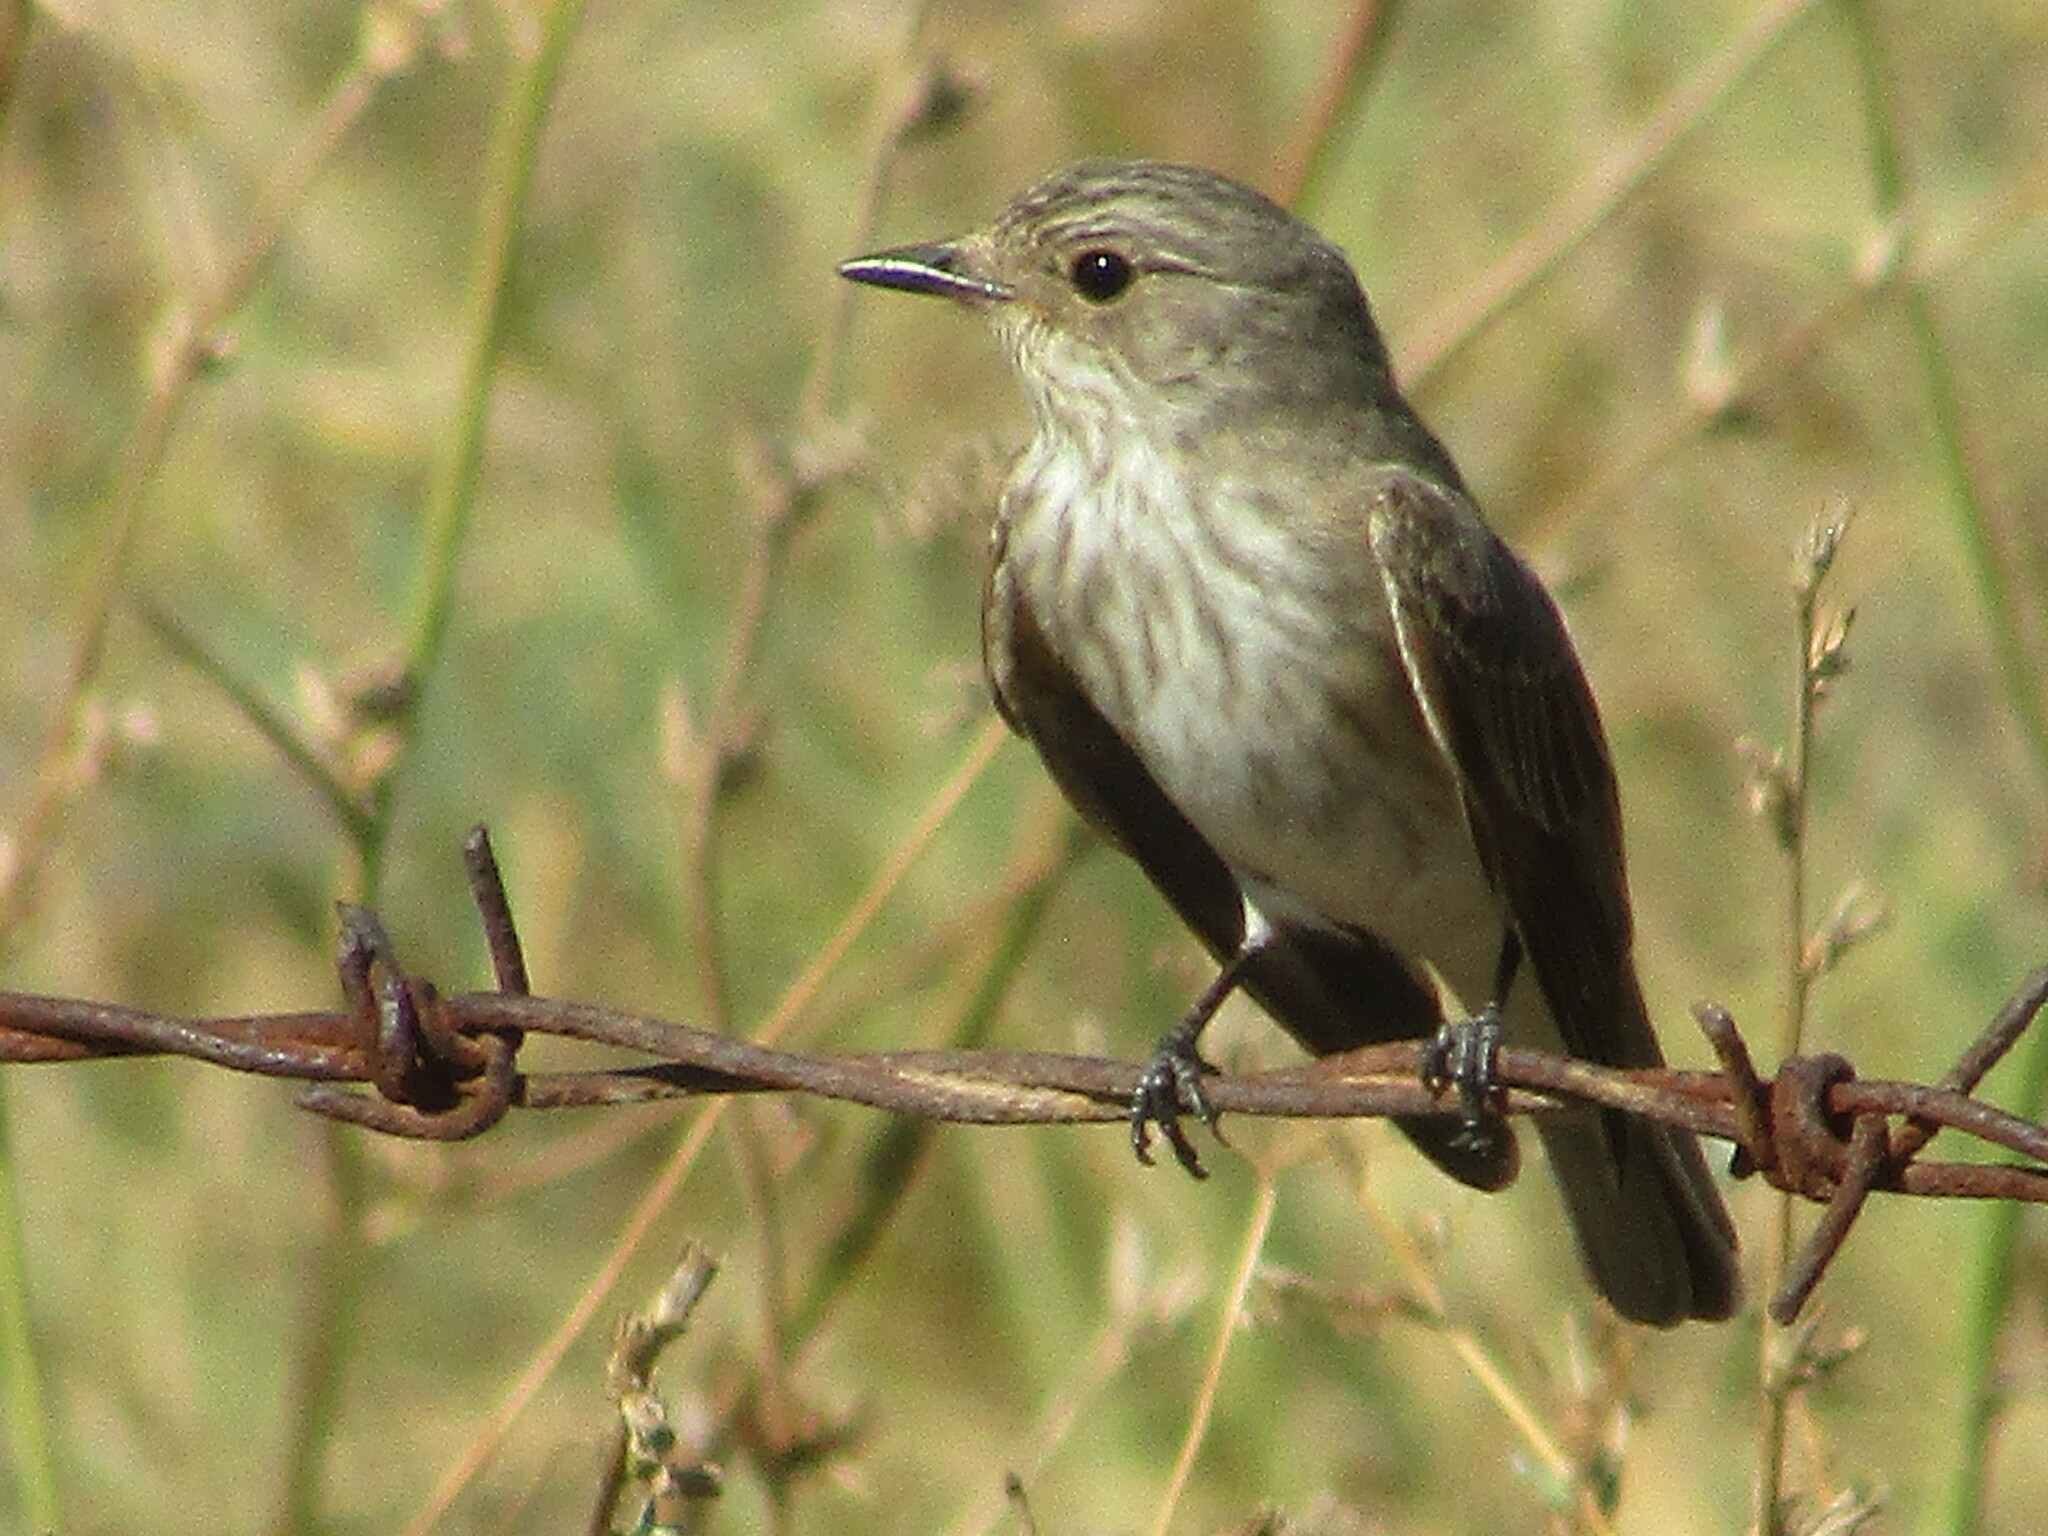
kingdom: Animalia
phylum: Chordata
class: Aves
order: Passeriformes
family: Muscicapidae
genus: Muscicapa
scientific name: Muscicapa striata
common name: Spotted flycatcher
